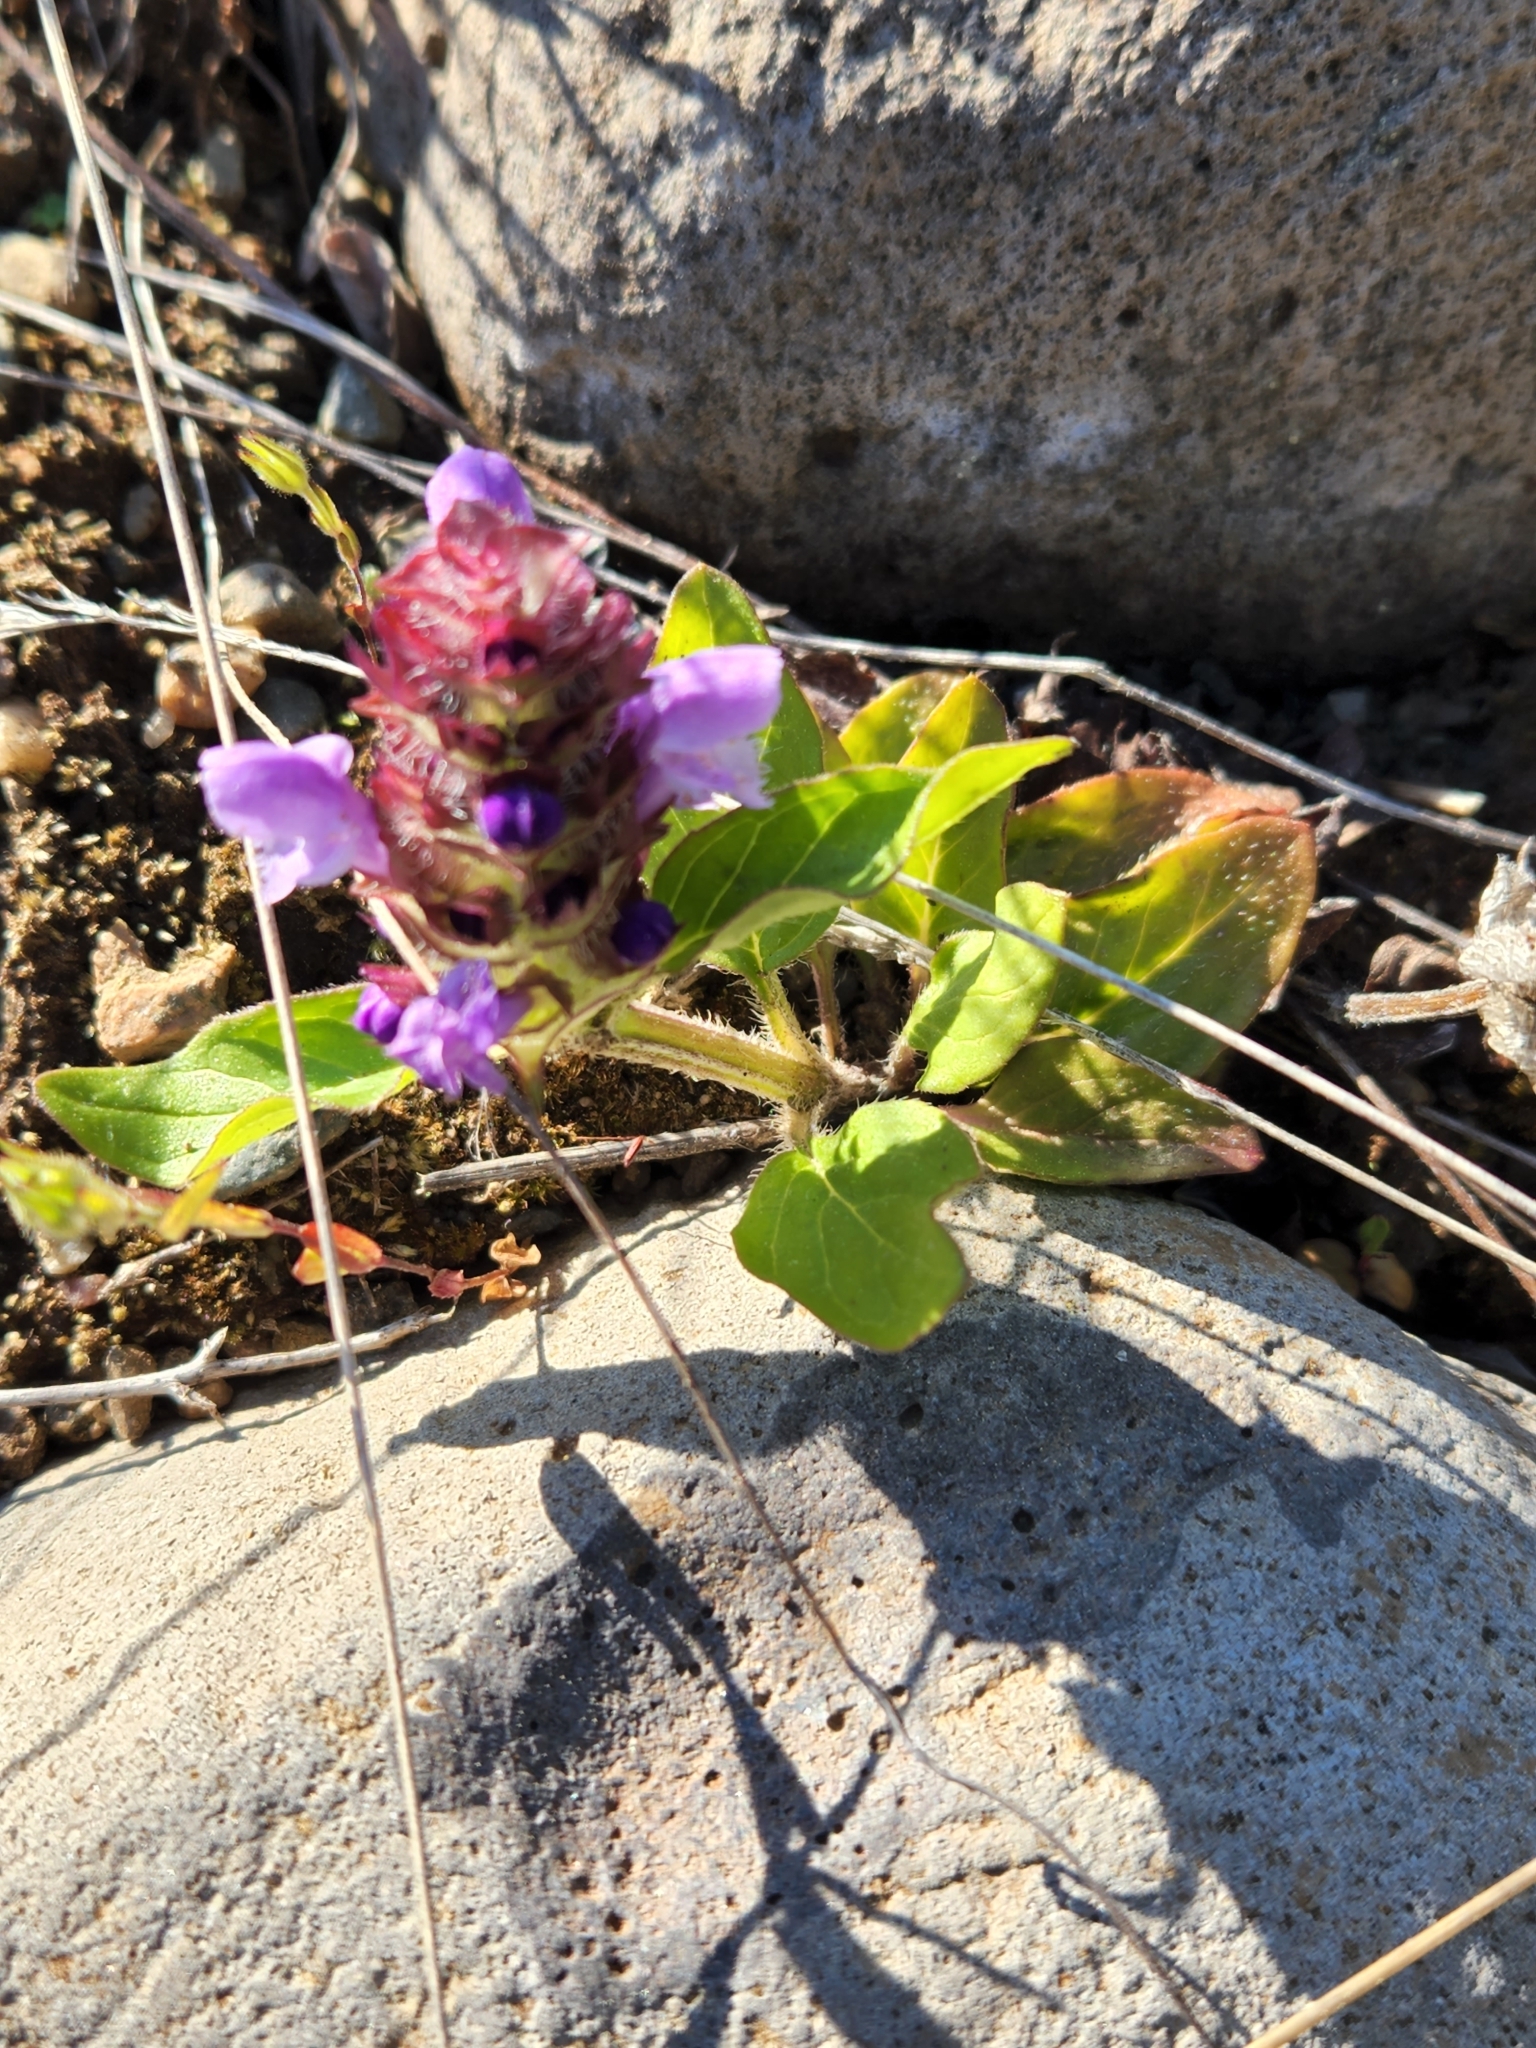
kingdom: Plantae
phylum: Tracheophyta
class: Magnoliopsida
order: Lamiales
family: Lamiaceae
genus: Prunella
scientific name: Prunella vulgaris
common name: Heal-all
